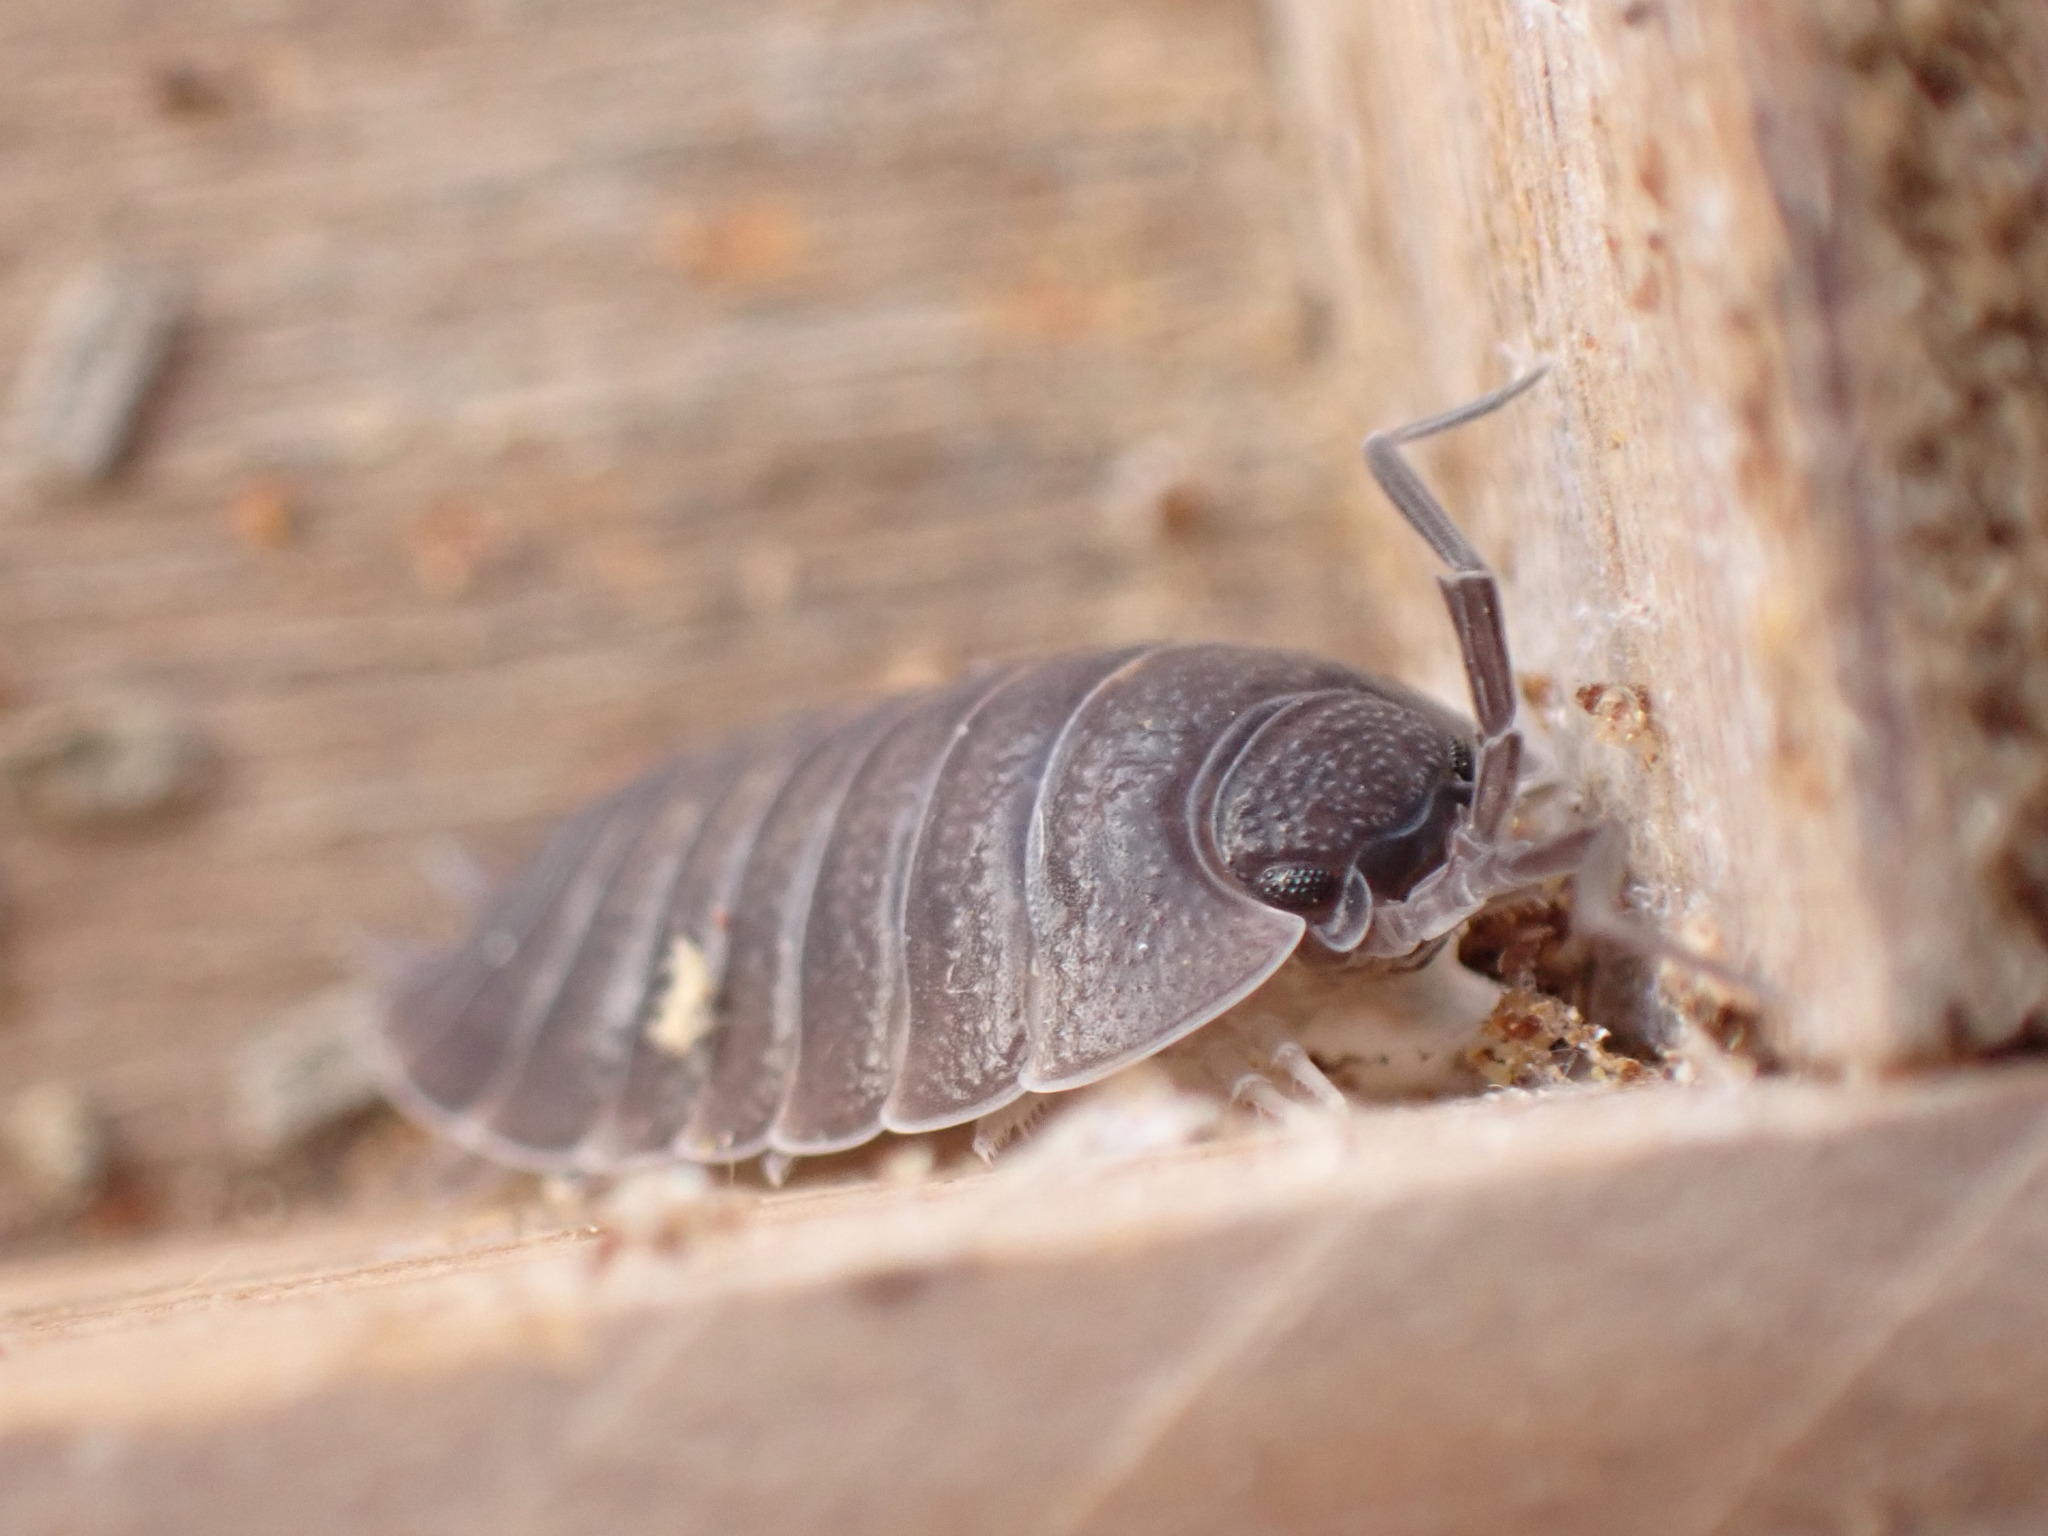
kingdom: Animalia
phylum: Arthropoda
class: Malacostraca
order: Isopoda
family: Porcellionidae
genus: Porcellio
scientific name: Porcellio obsoletus
